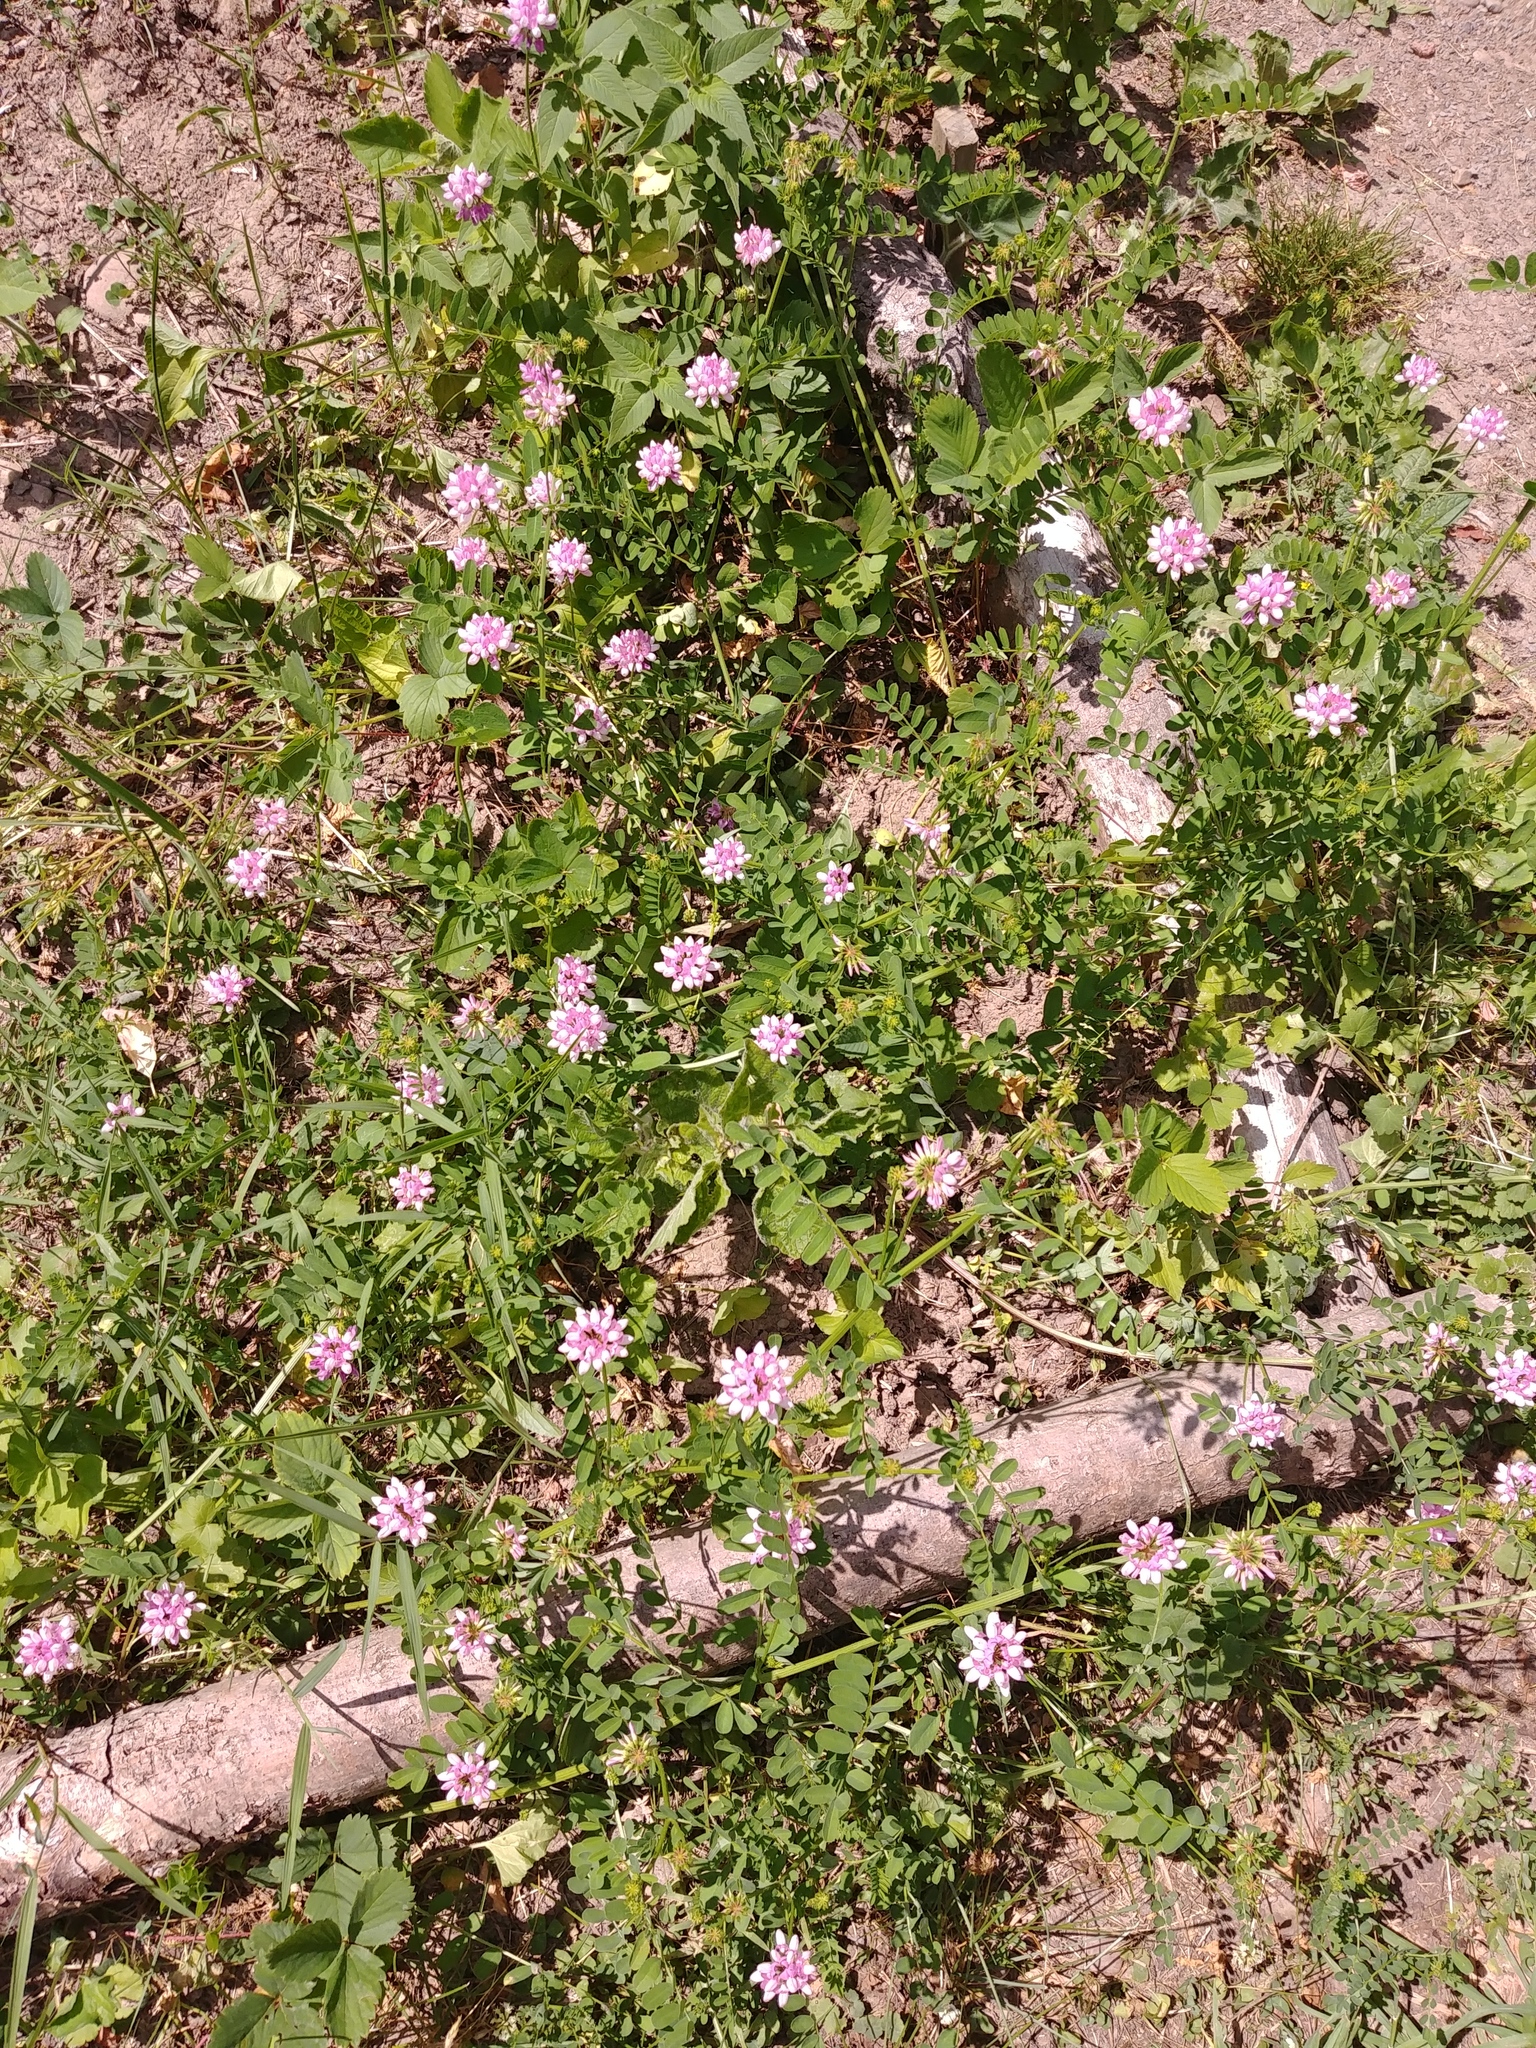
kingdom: Plantae
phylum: Tracheophyta
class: Magnoliopsida
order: Fabales
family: Fabaceae
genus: Coronilla
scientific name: Coronilla varia
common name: Crownvetch
